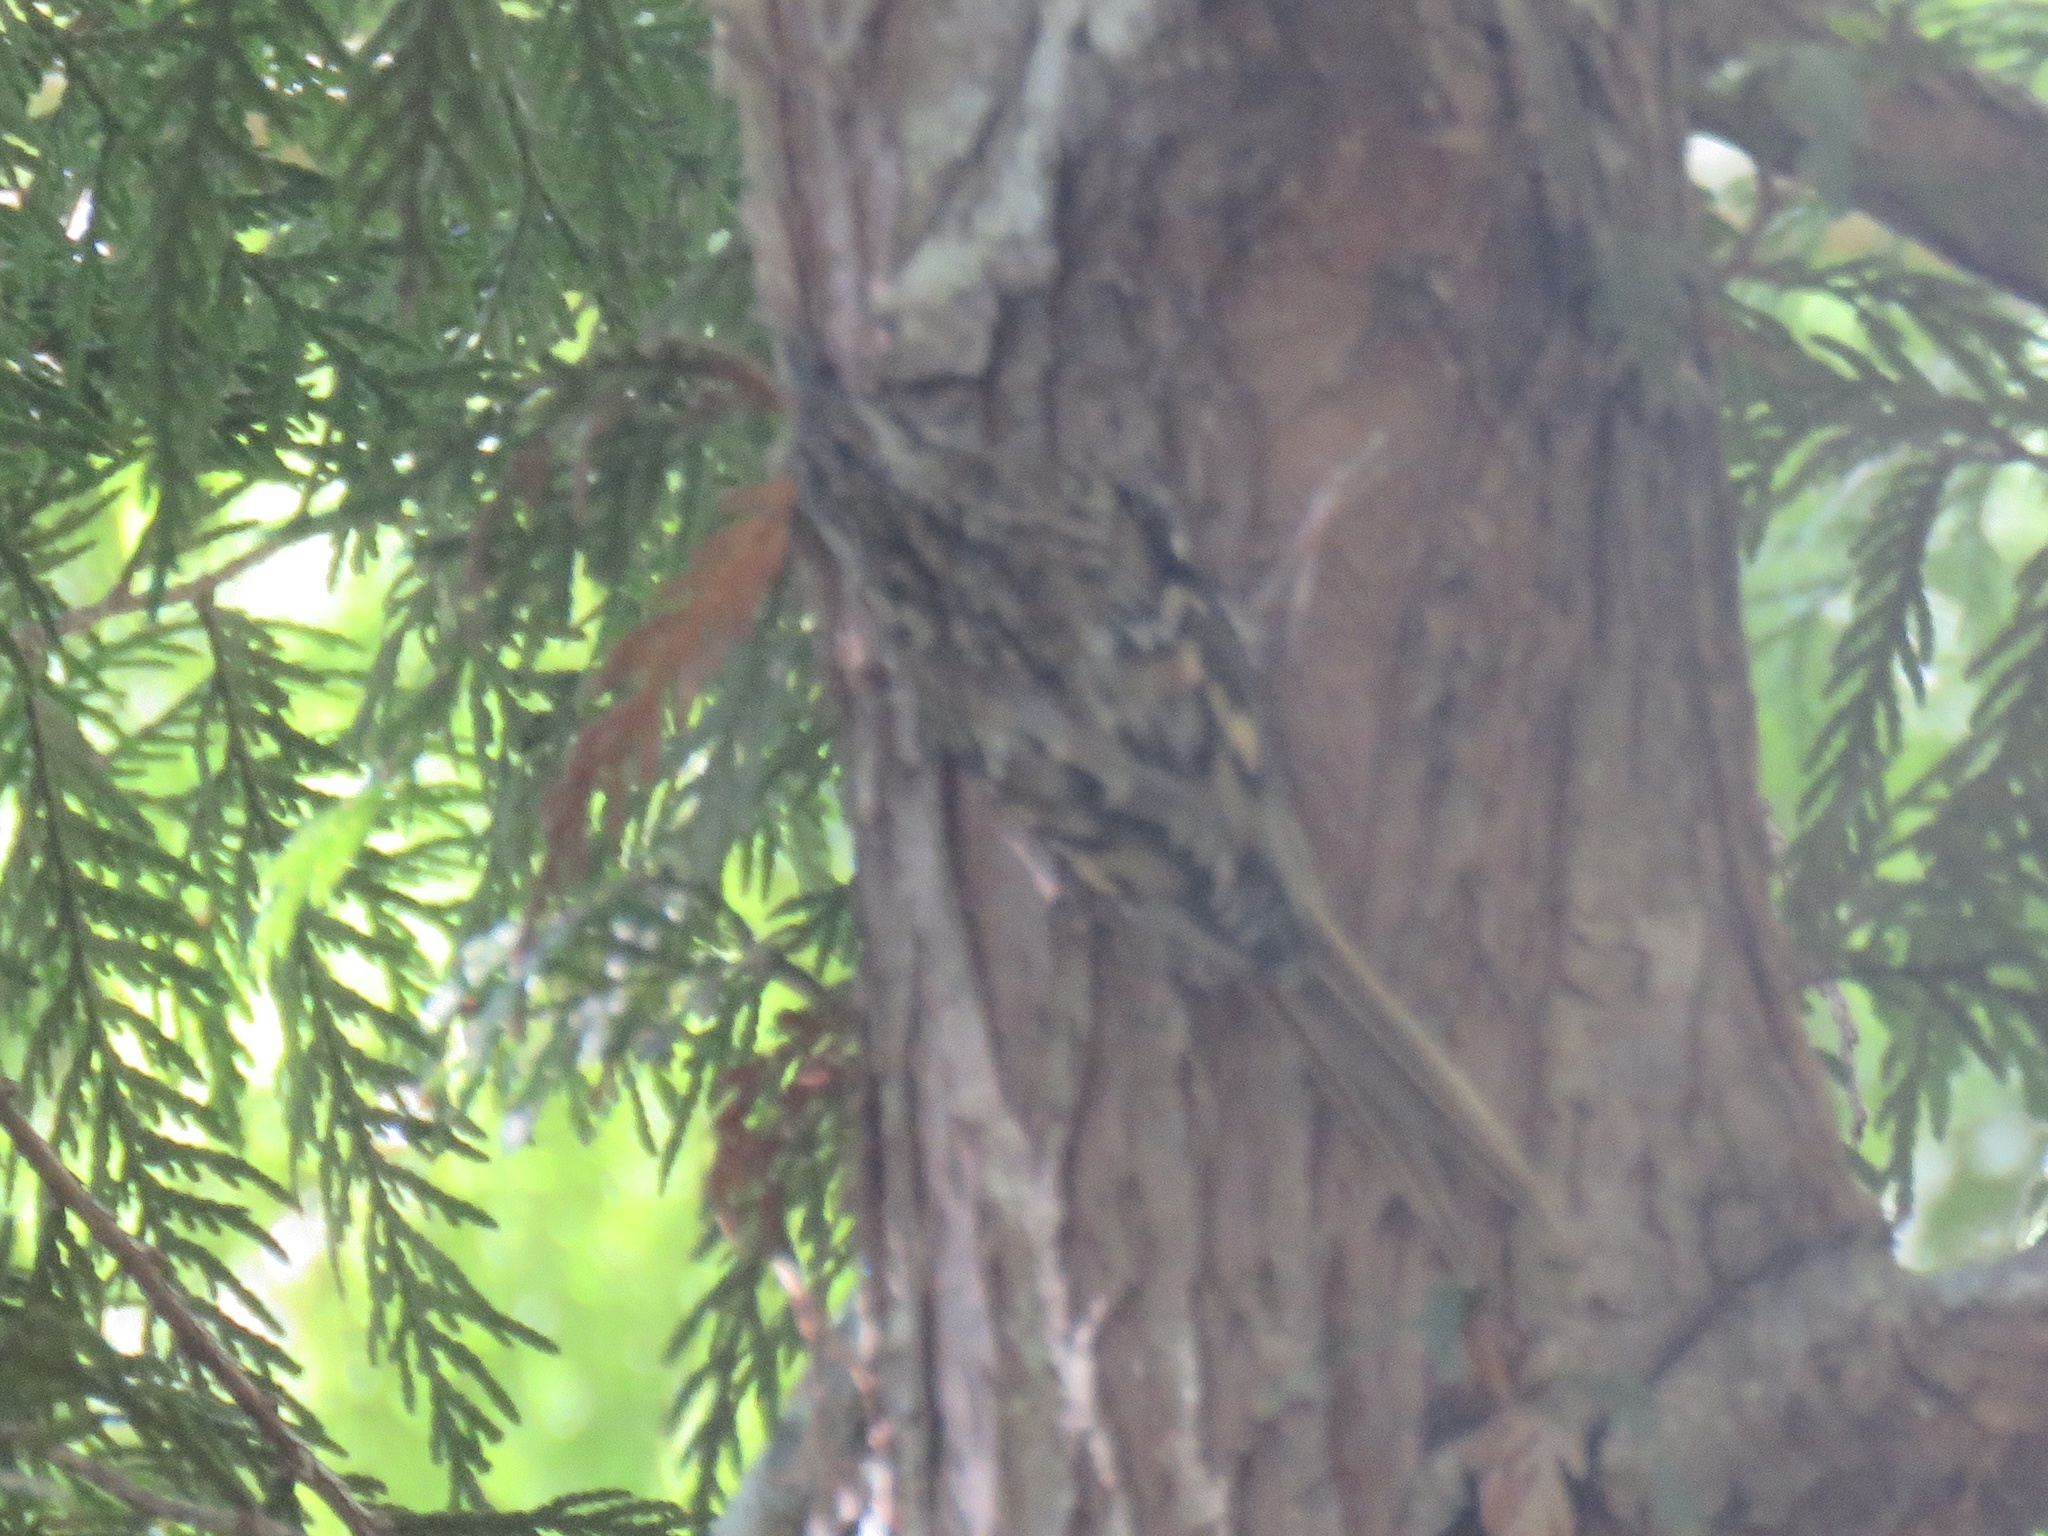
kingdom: Animalia
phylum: Chordata
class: Aves
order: Passeriformes
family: Certhiidae
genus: Certhia
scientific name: Certhia americana
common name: Brown creeper
